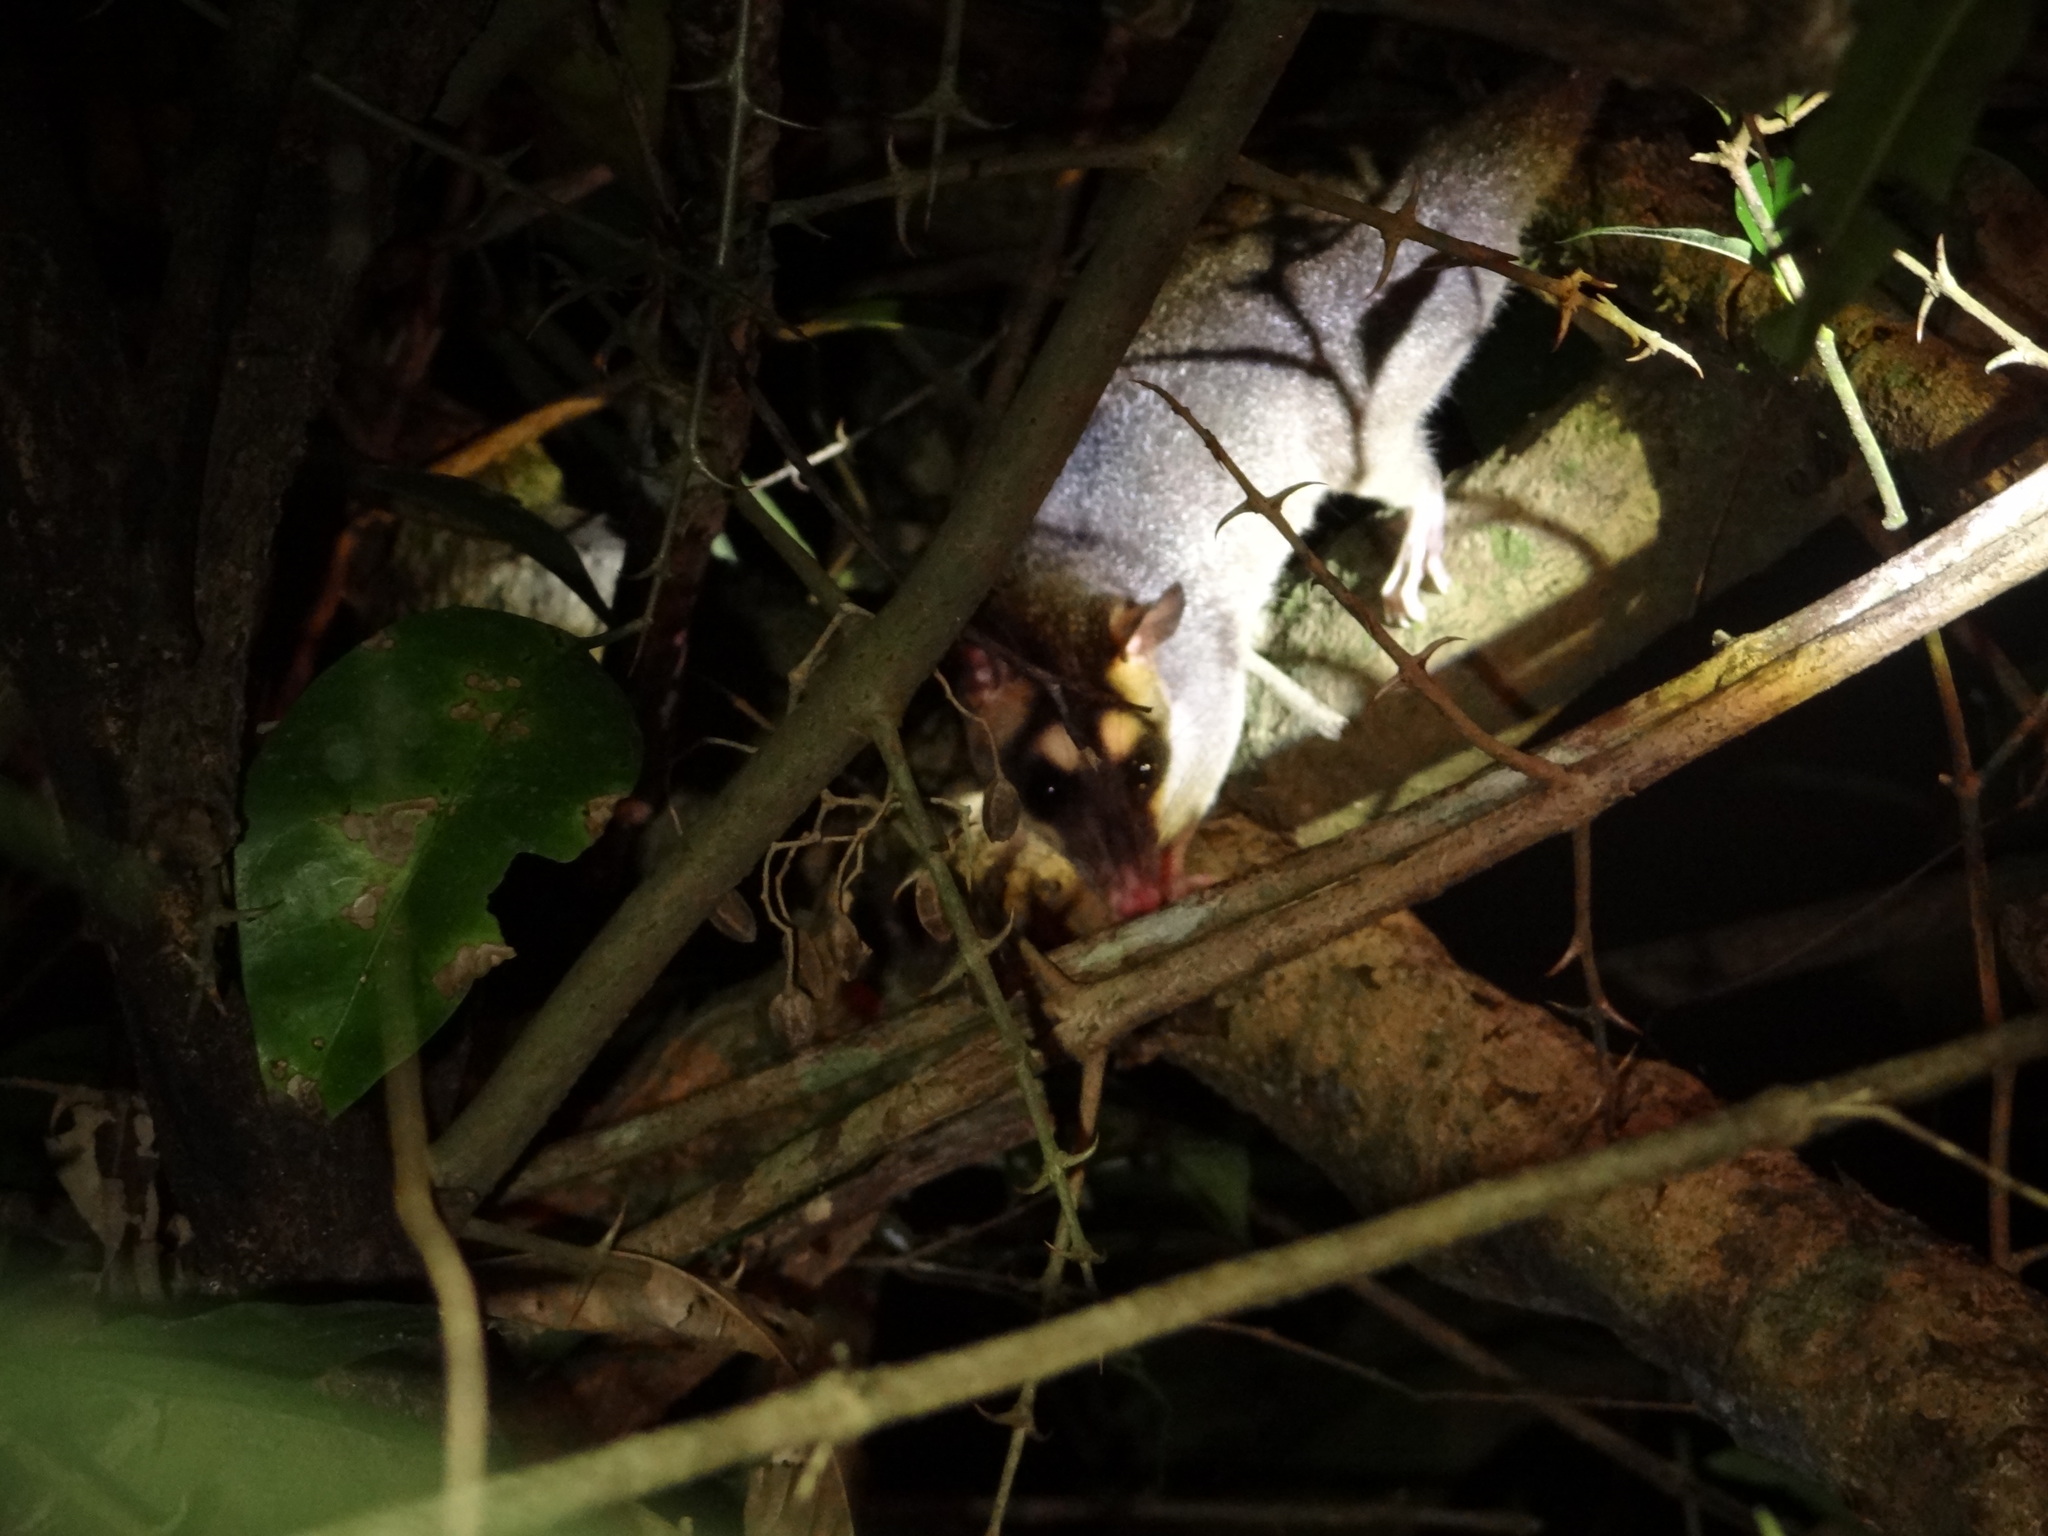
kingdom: Animalia
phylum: Chordata
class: Mammalia
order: Didelphimorphia
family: Didelphidae
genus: Philander
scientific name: Philander
